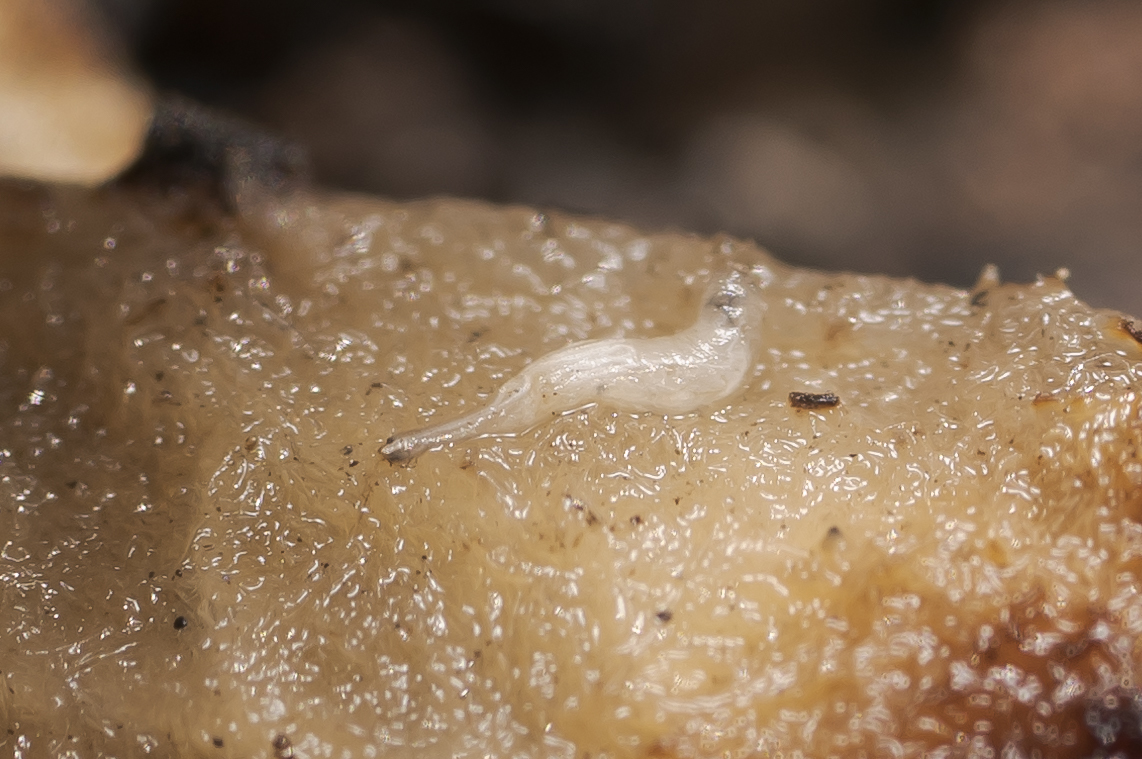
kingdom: Animalia
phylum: Arthropoda
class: Insecta
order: Diptera
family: Syrphidae
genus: Myathropa
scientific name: Myathropa florea
